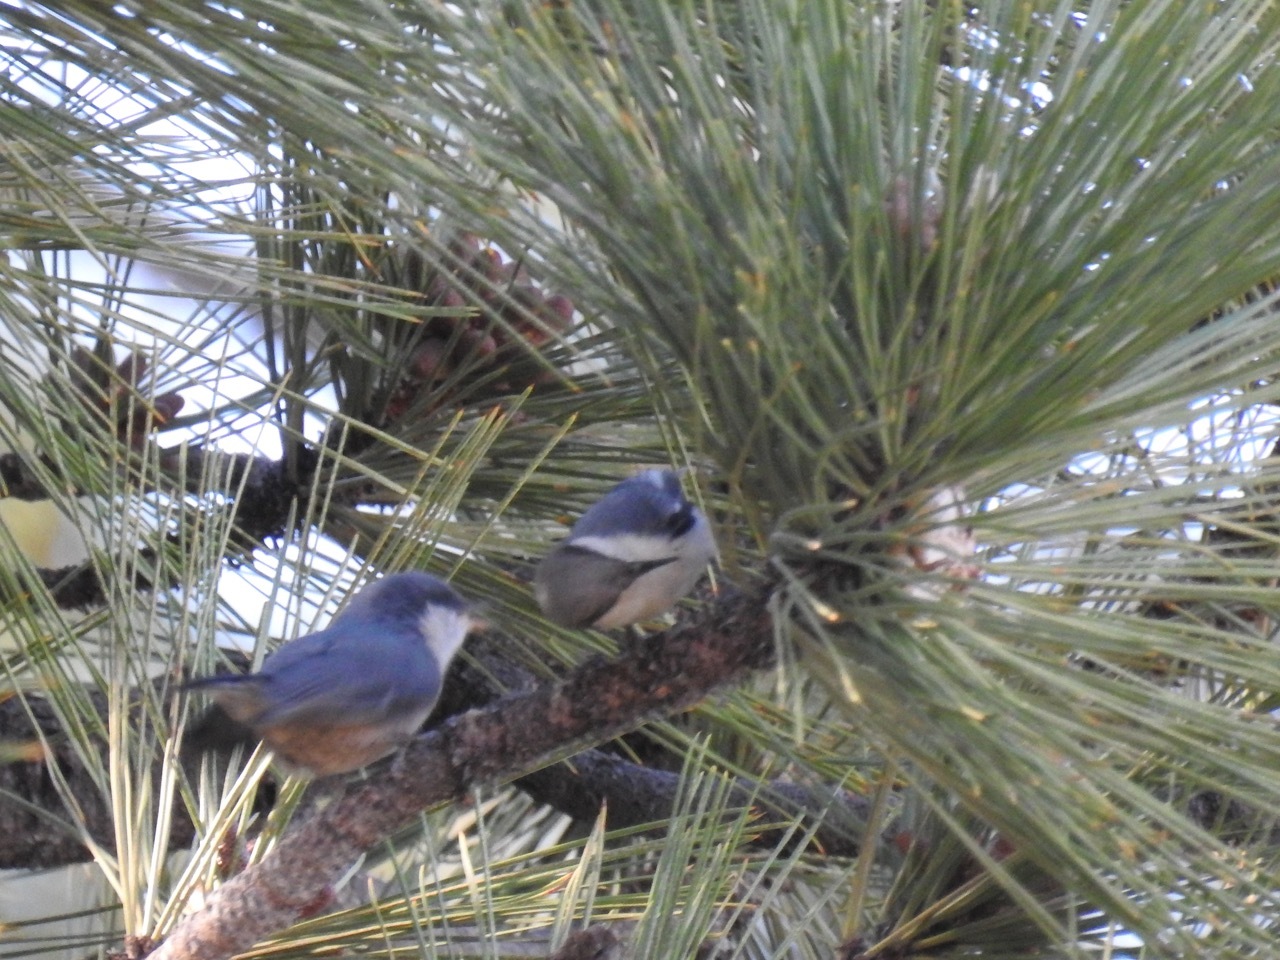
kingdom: Animalia
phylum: Chordata
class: Aves
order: Passeriformes
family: Sittidae
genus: Sitta
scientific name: Sitta pygmaea
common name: Pygmy nuthatch
